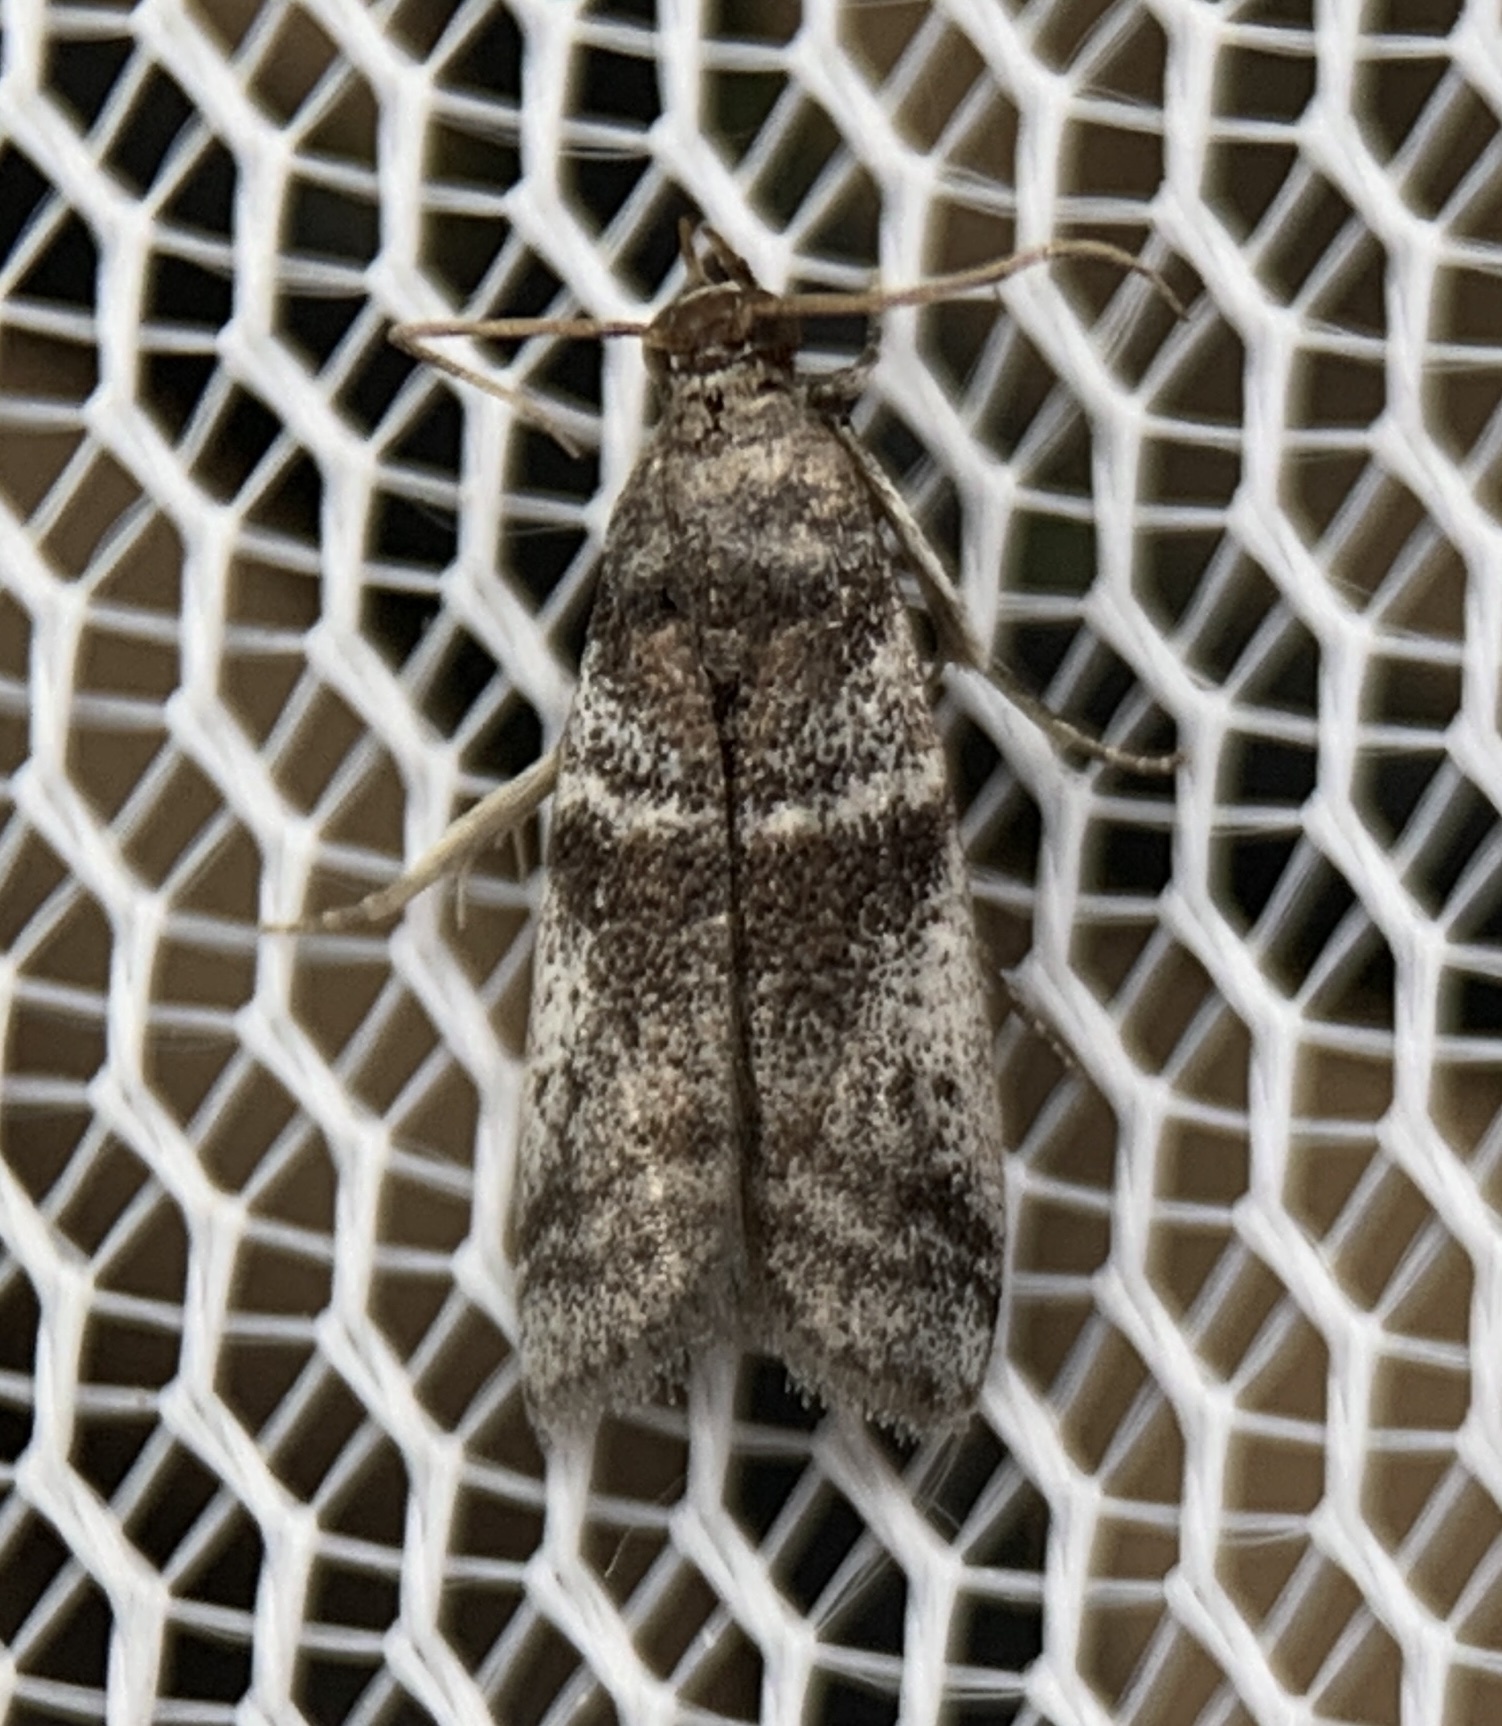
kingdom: Animalia
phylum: Arthropoda
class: Insecta
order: Lepidoptera
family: Pyralidae
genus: Laetilia
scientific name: Laetilia coccidivora
